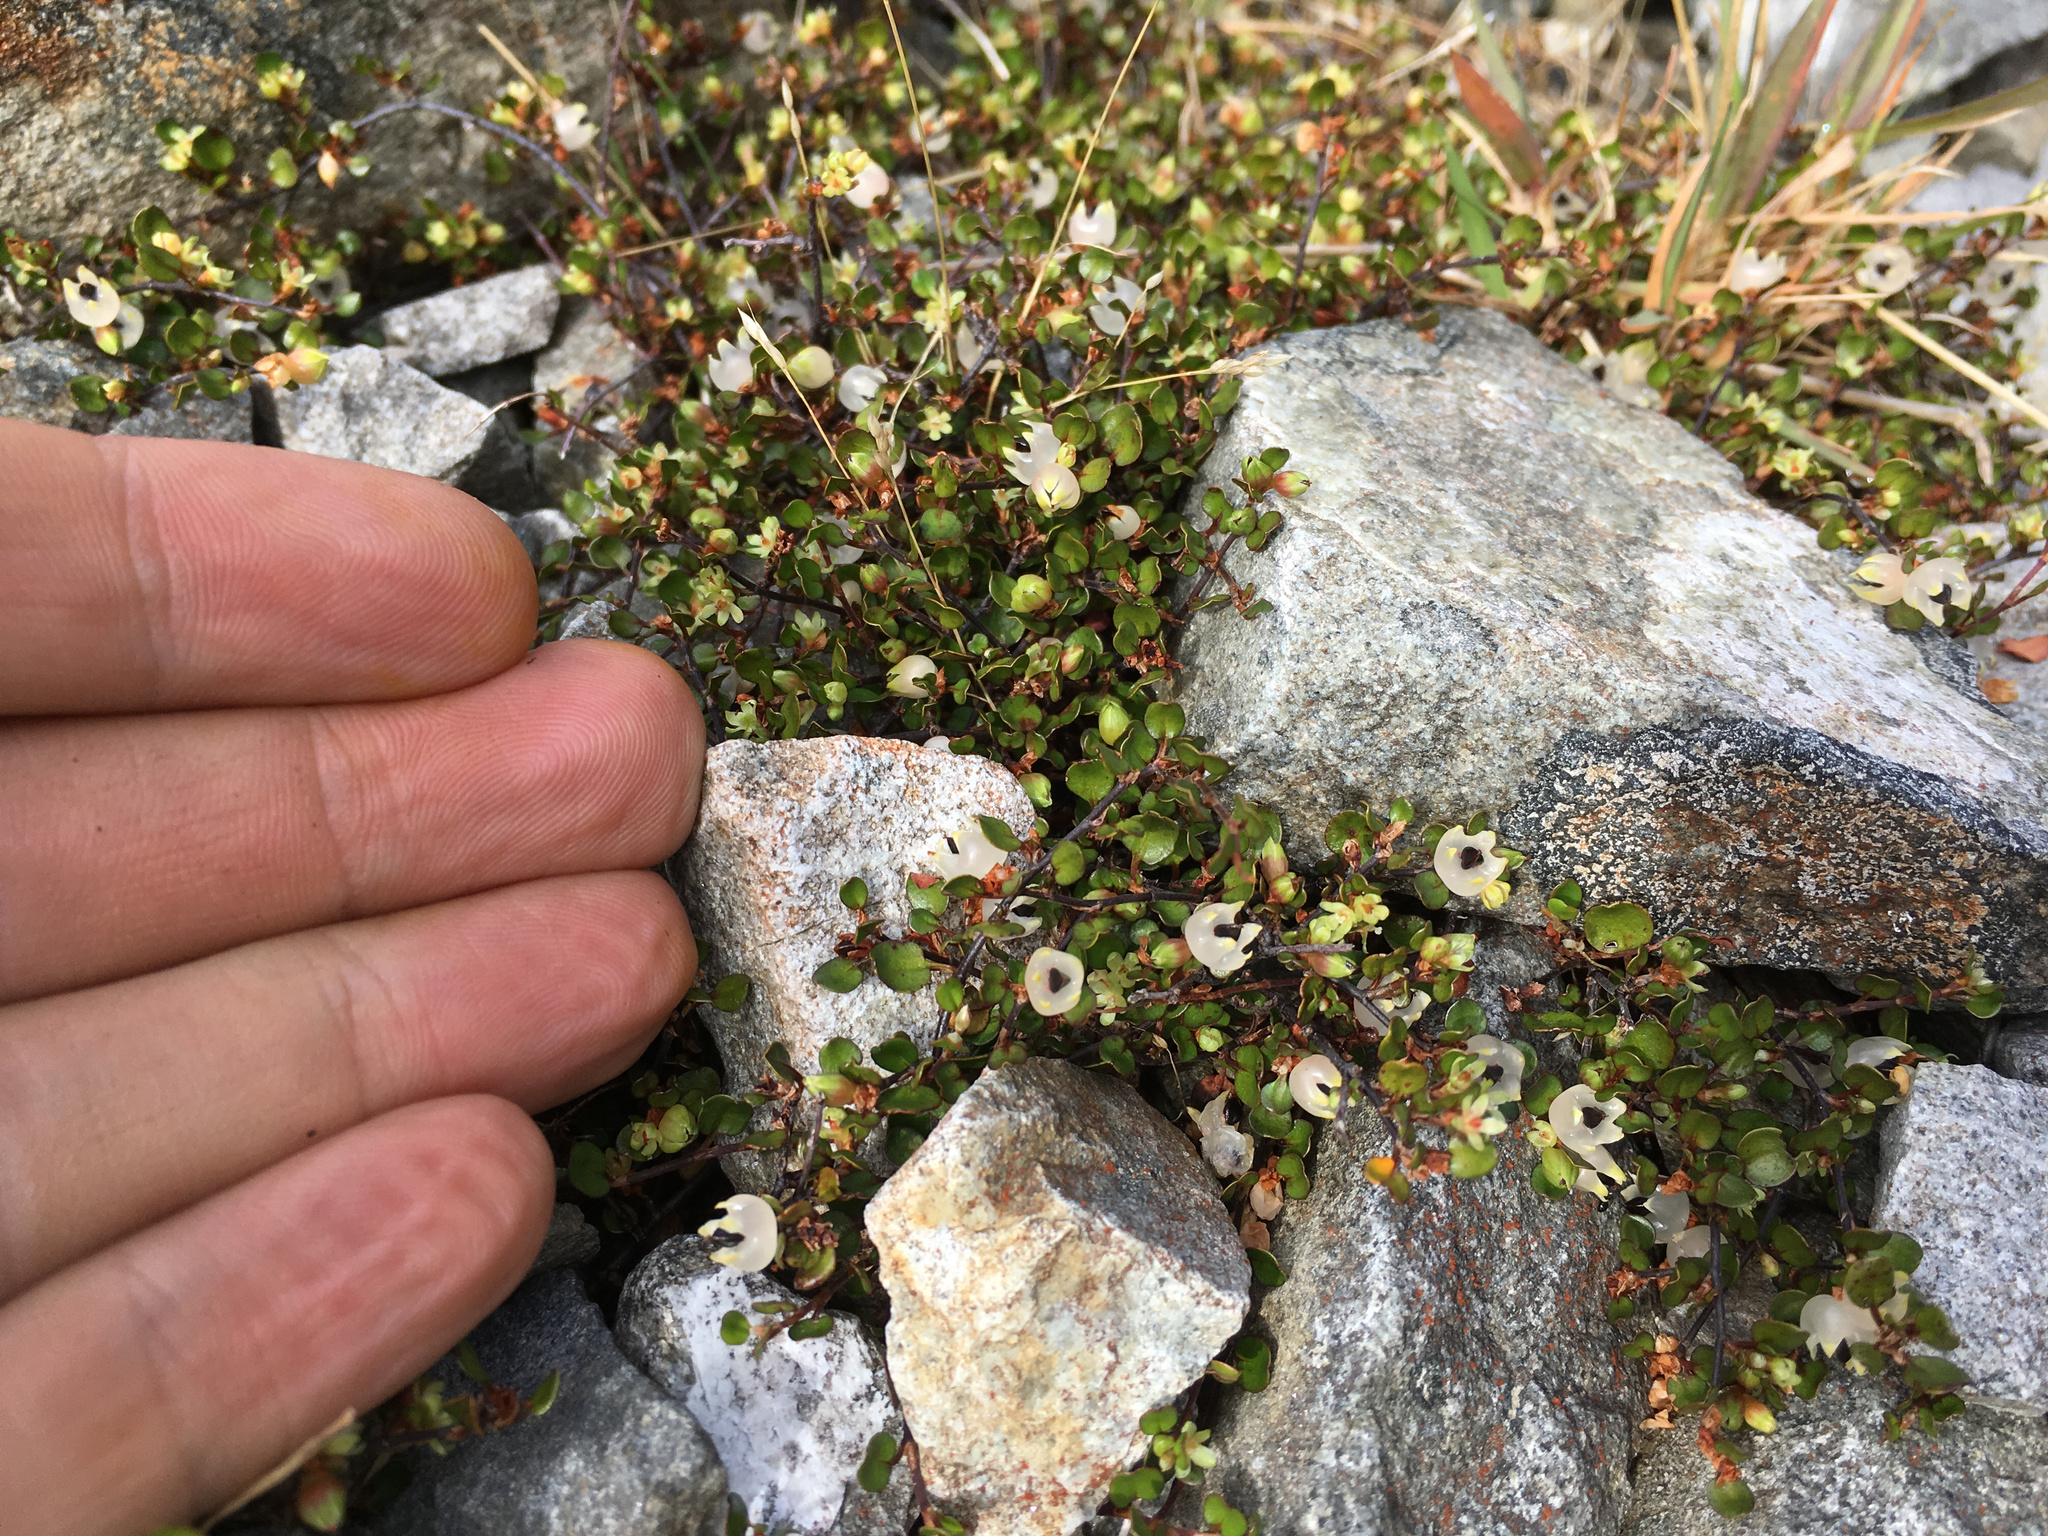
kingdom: Plantae
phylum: Tracheophyta
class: Magnoliopsida
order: Caryophyllales
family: Polygonaceae
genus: Muehlenbeckia
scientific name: Muehlenbeckia axillaris
